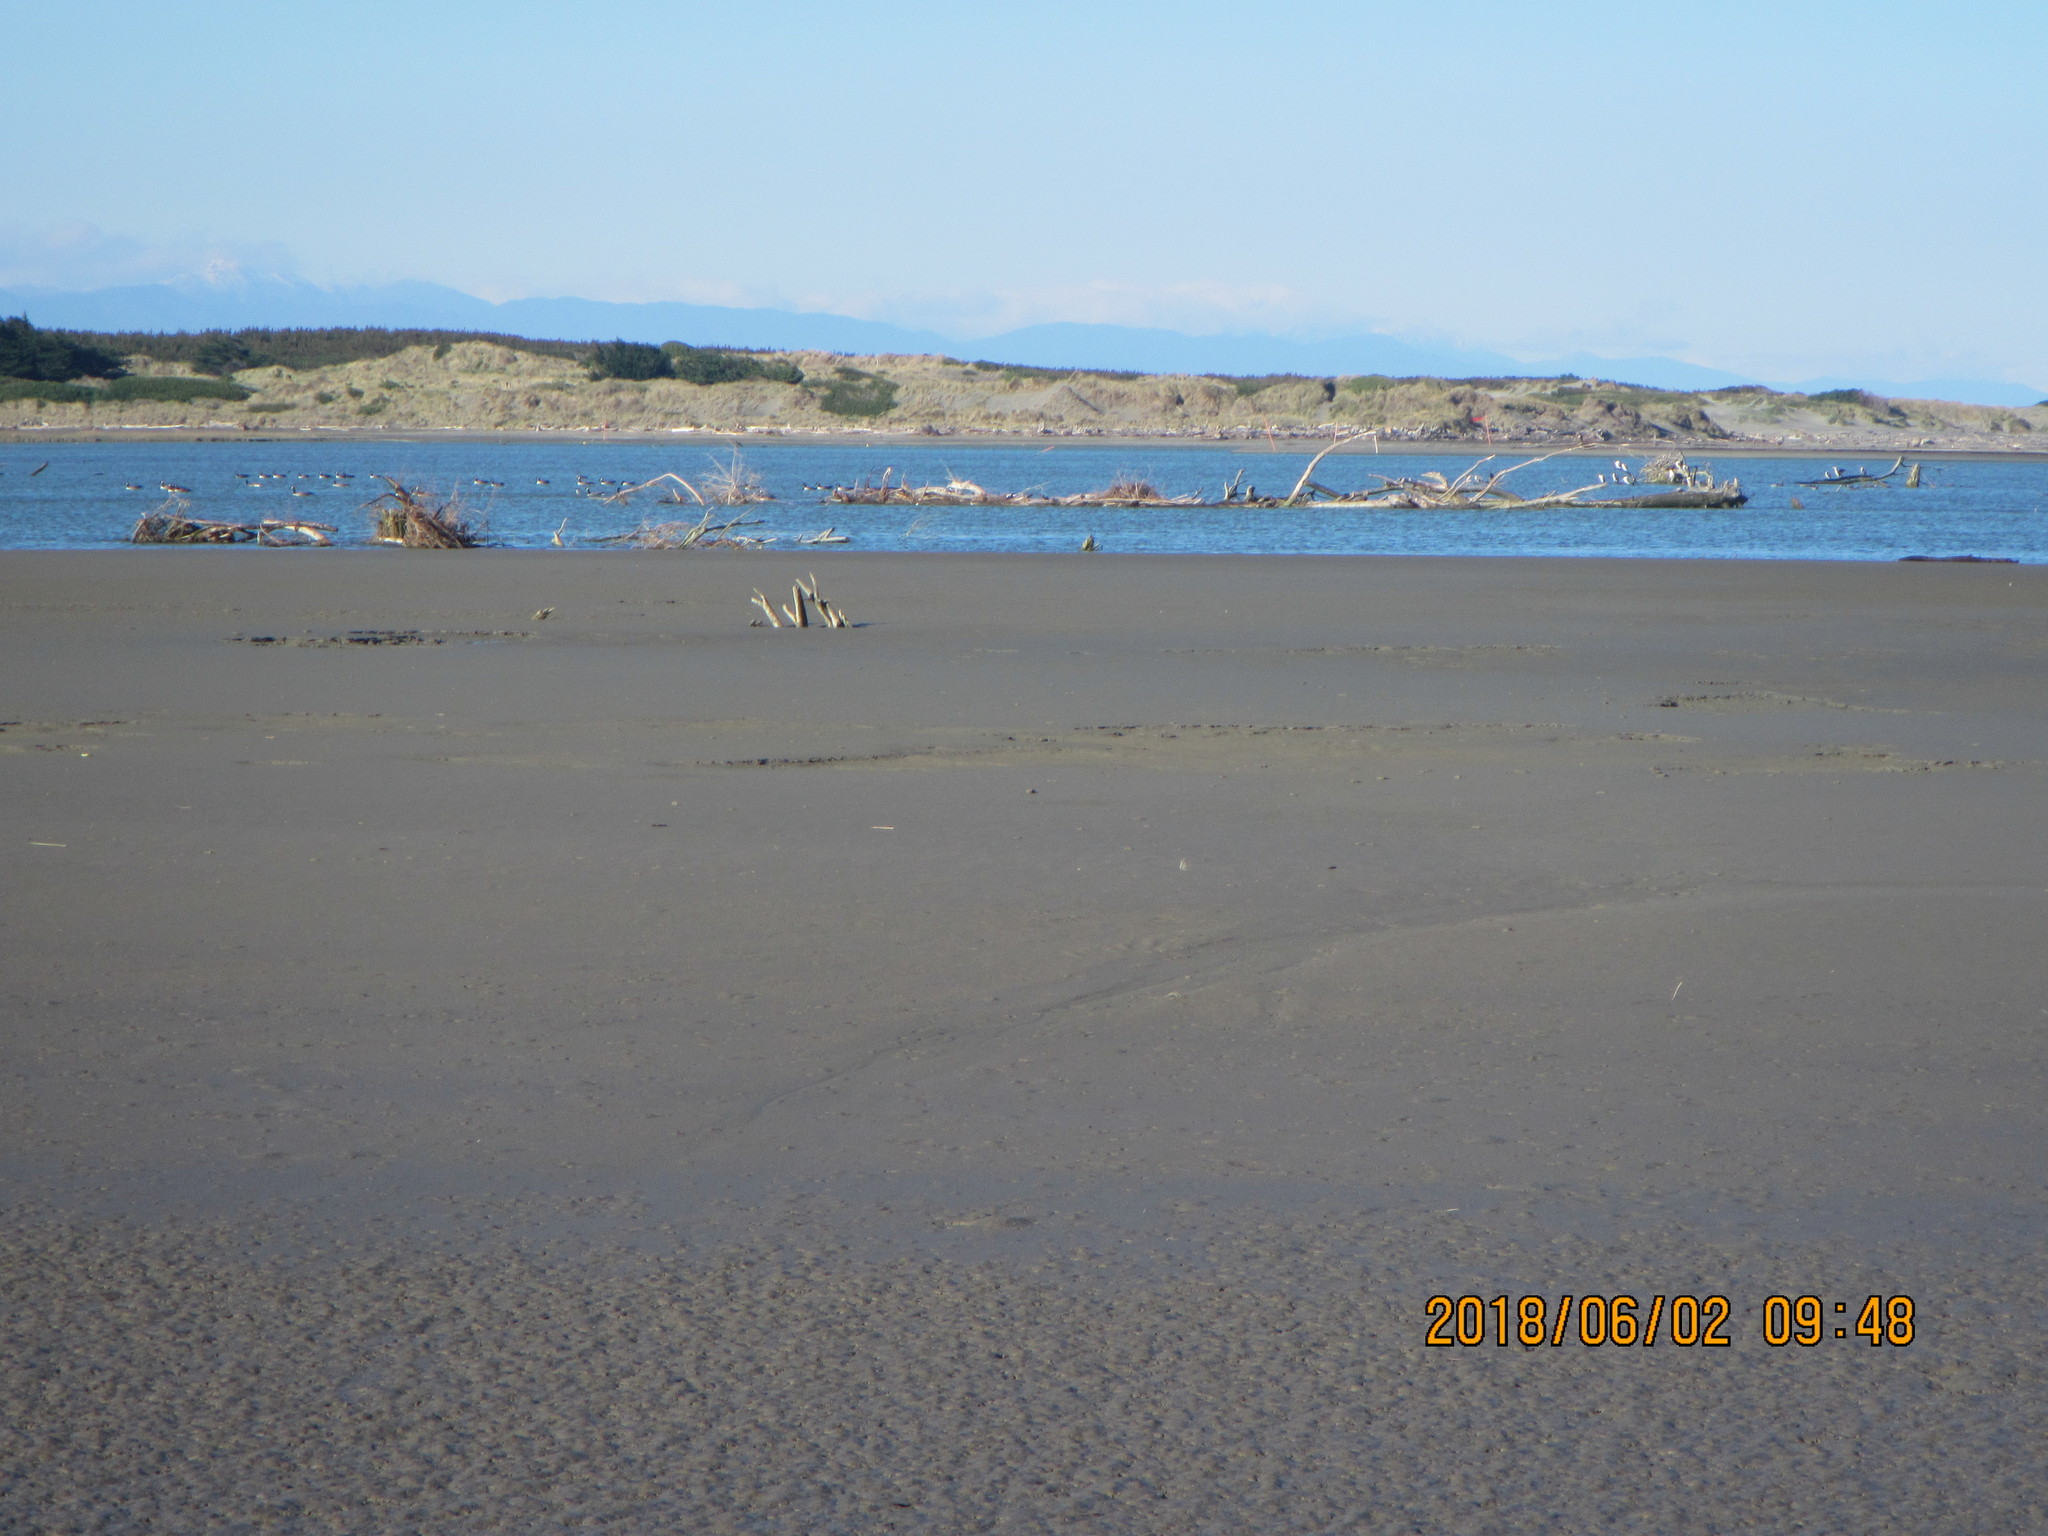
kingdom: Animalia
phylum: Chordata
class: Aves
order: Suliformes
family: Phalacrocoracidae
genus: Phalacrocorax
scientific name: Phalacrocorax varius
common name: Pied cormorant
